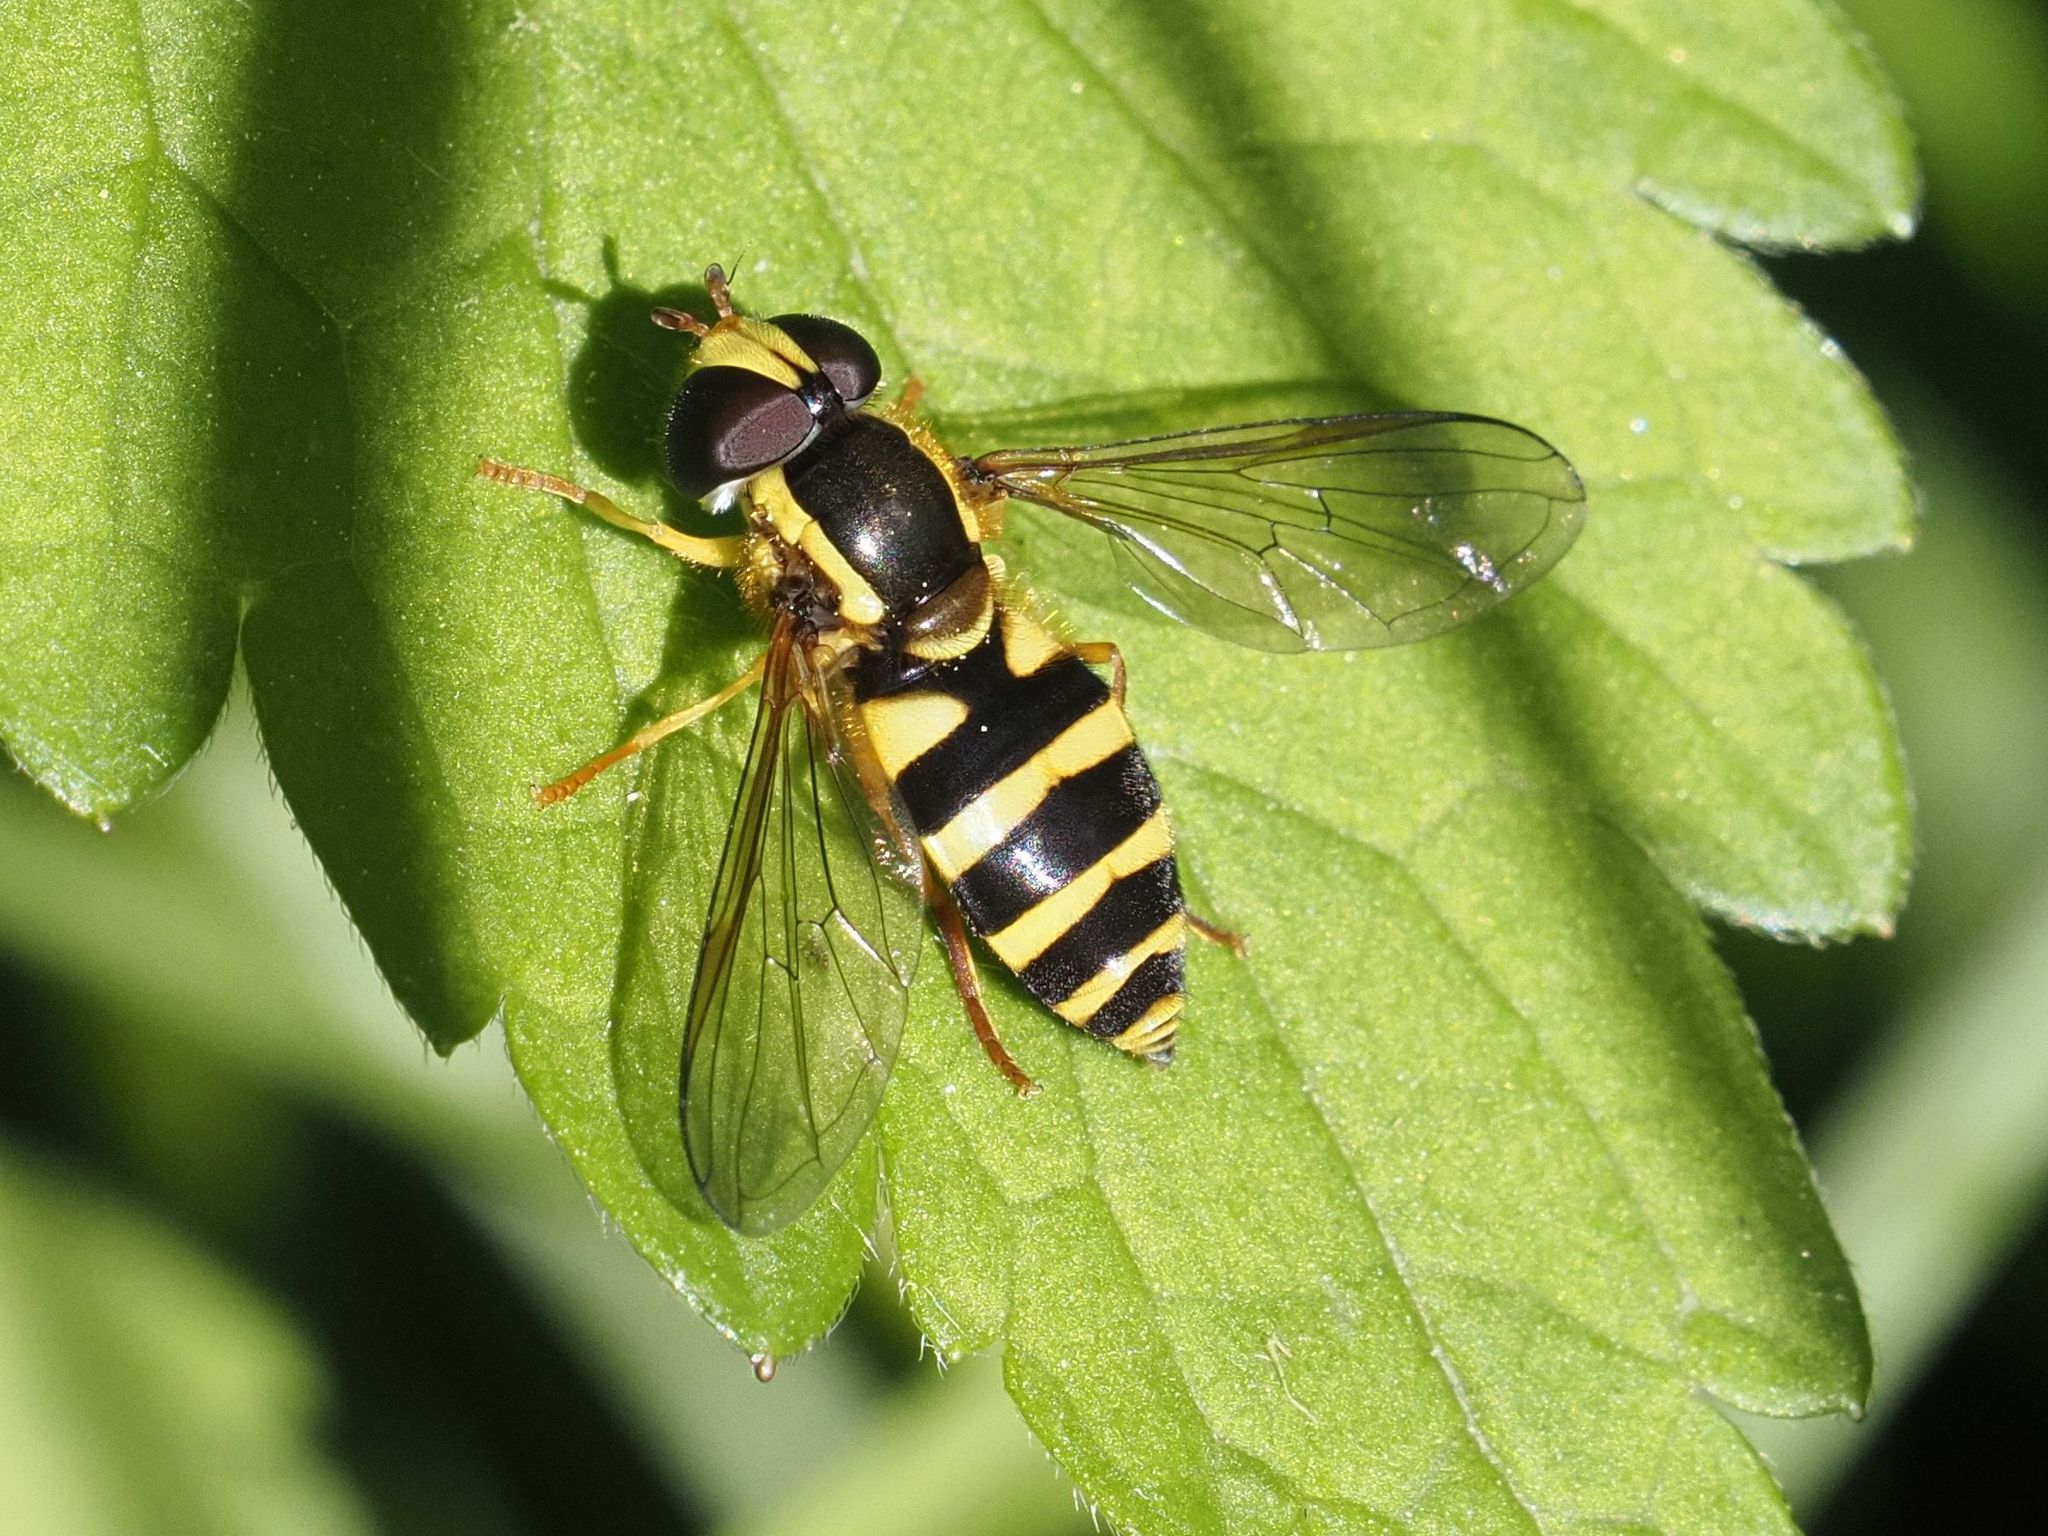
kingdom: Animalia
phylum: Arthropoda
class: Insecta
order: Diptera
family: Syrphidae
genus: Philhelius
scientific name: Philhelius laetus
